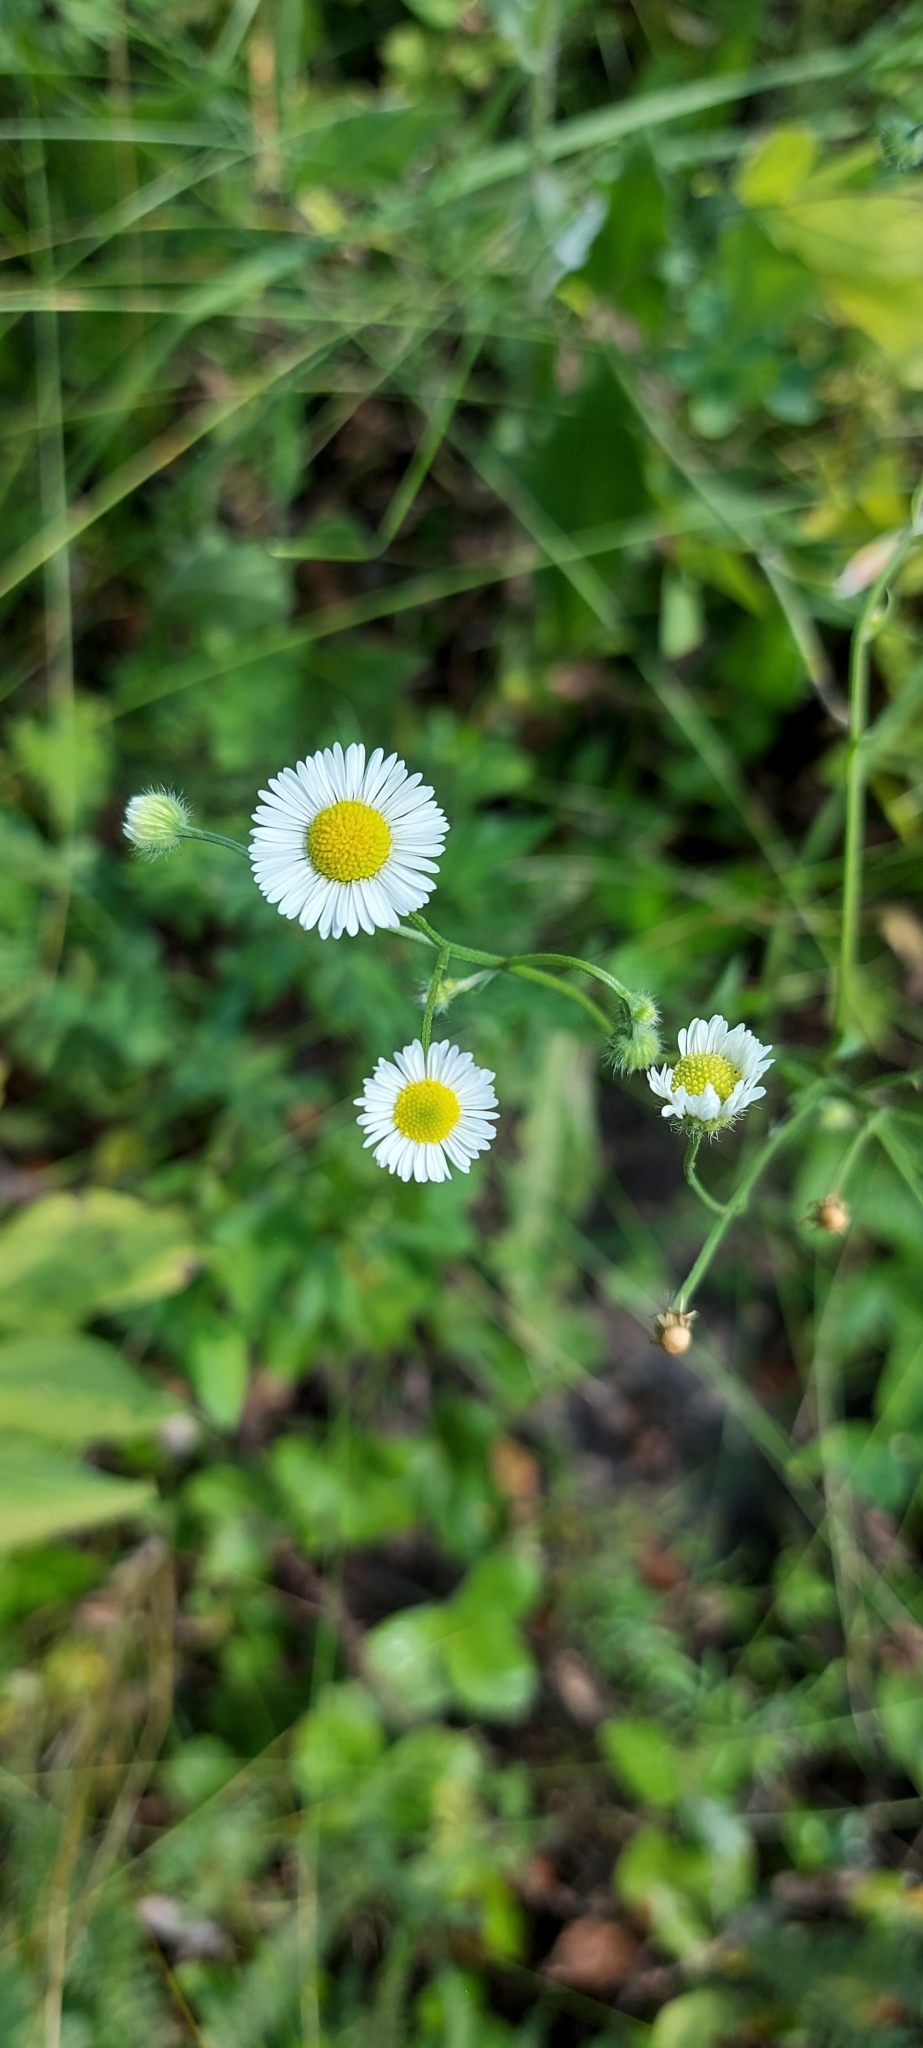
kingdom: Plantae
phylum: Tracheophyta
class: Magnoliopsida
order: Asterales
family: Asteraceae
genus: Erigeron
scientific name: Erigeron strigosus
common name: Common eastern fleabane
